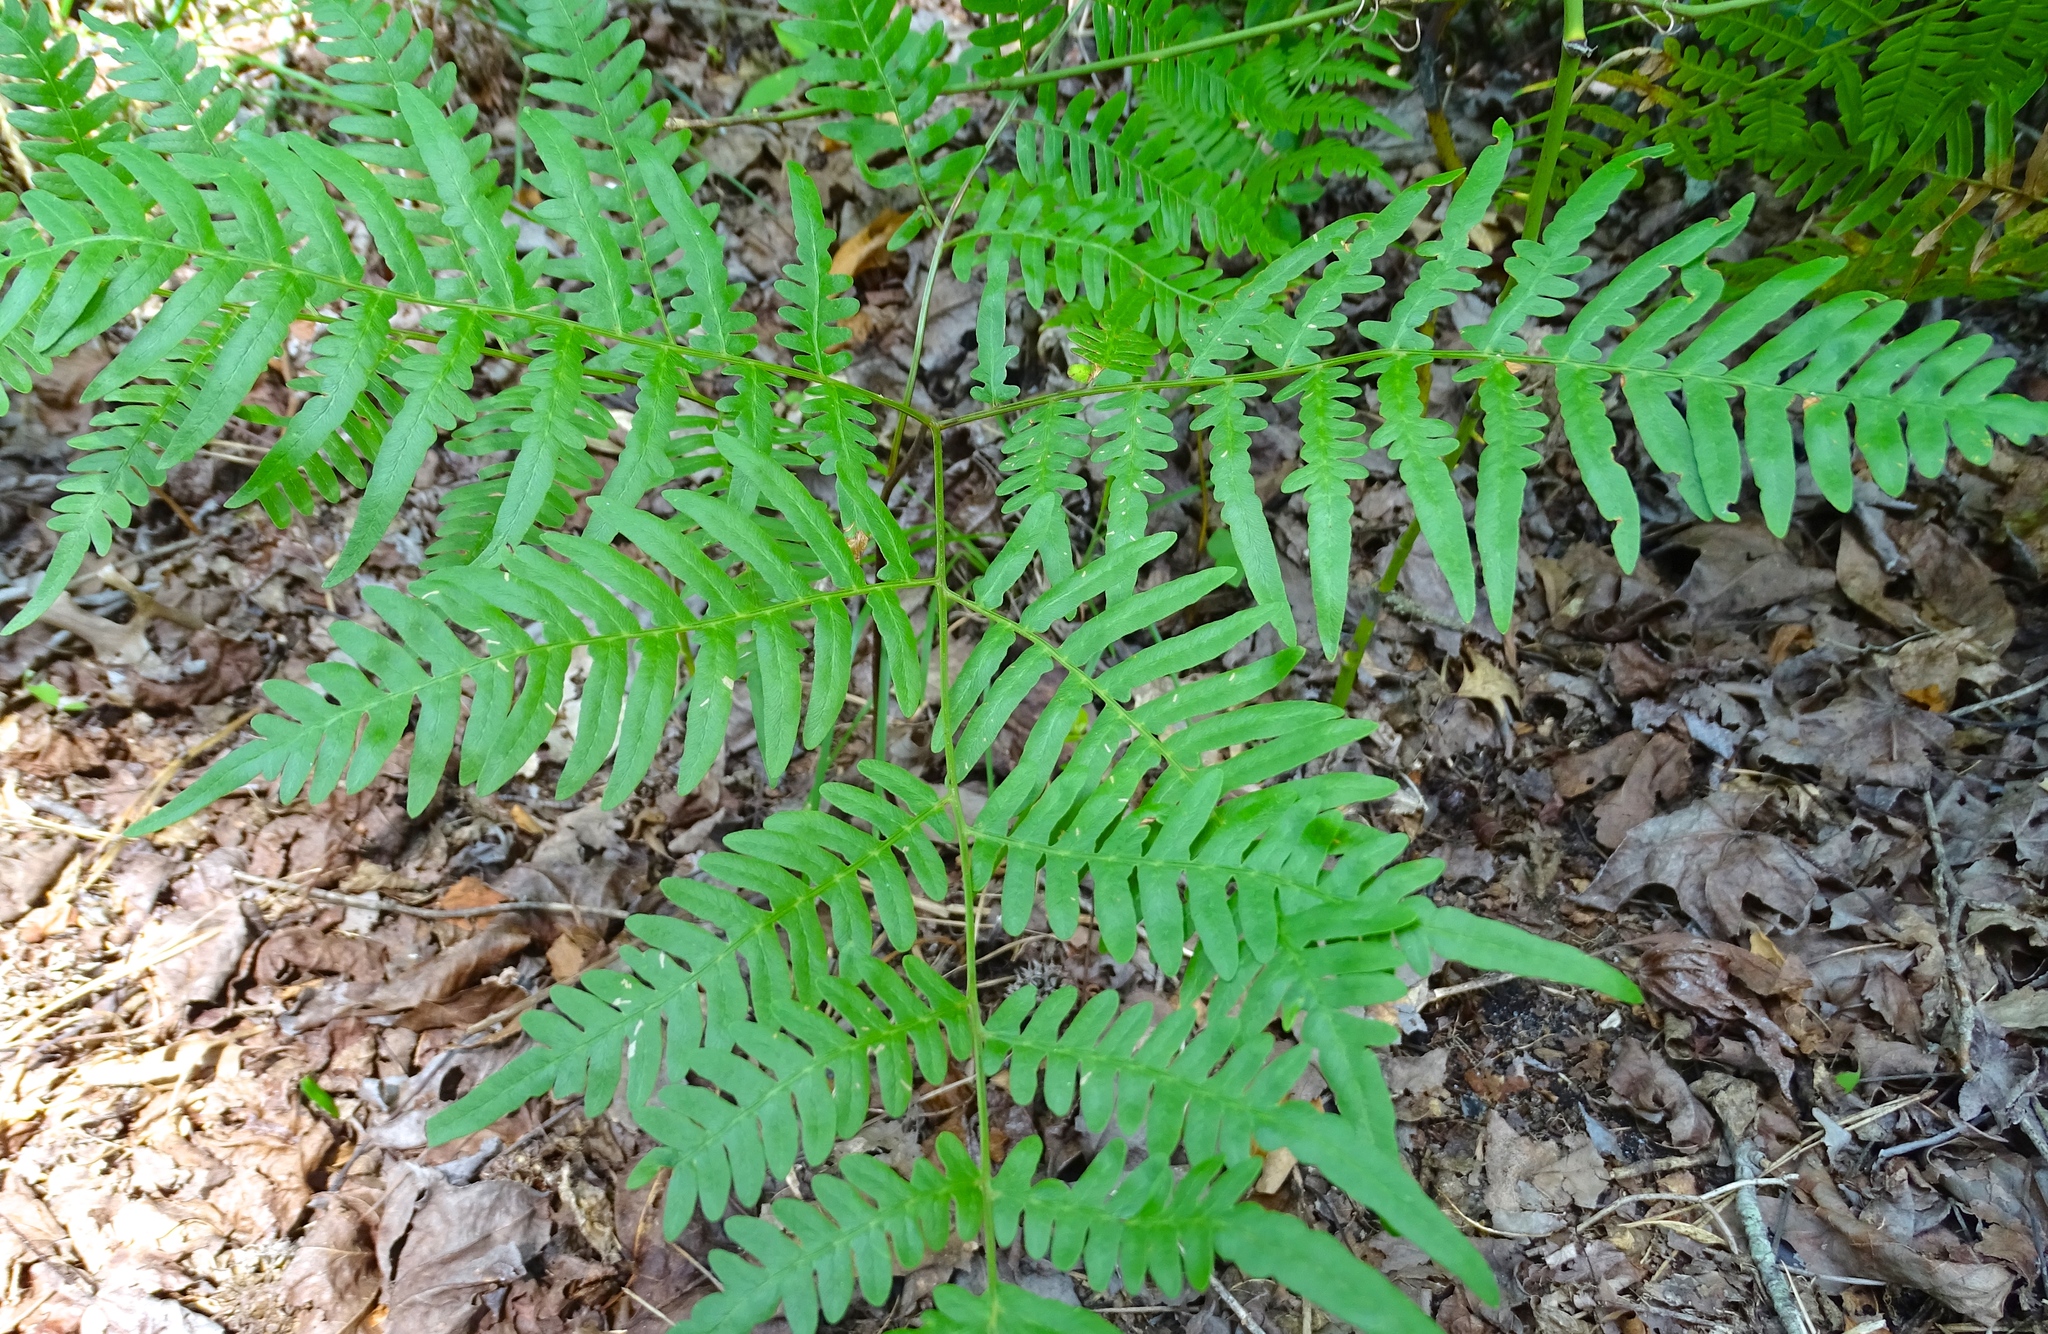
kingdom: Plantae
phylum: Tracheophyta
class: Polypodiopsida
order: Polypodiales
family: Dennstaedtiaceae
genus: Pteridium
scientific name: Pteridium aquilinum
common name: Bracken
